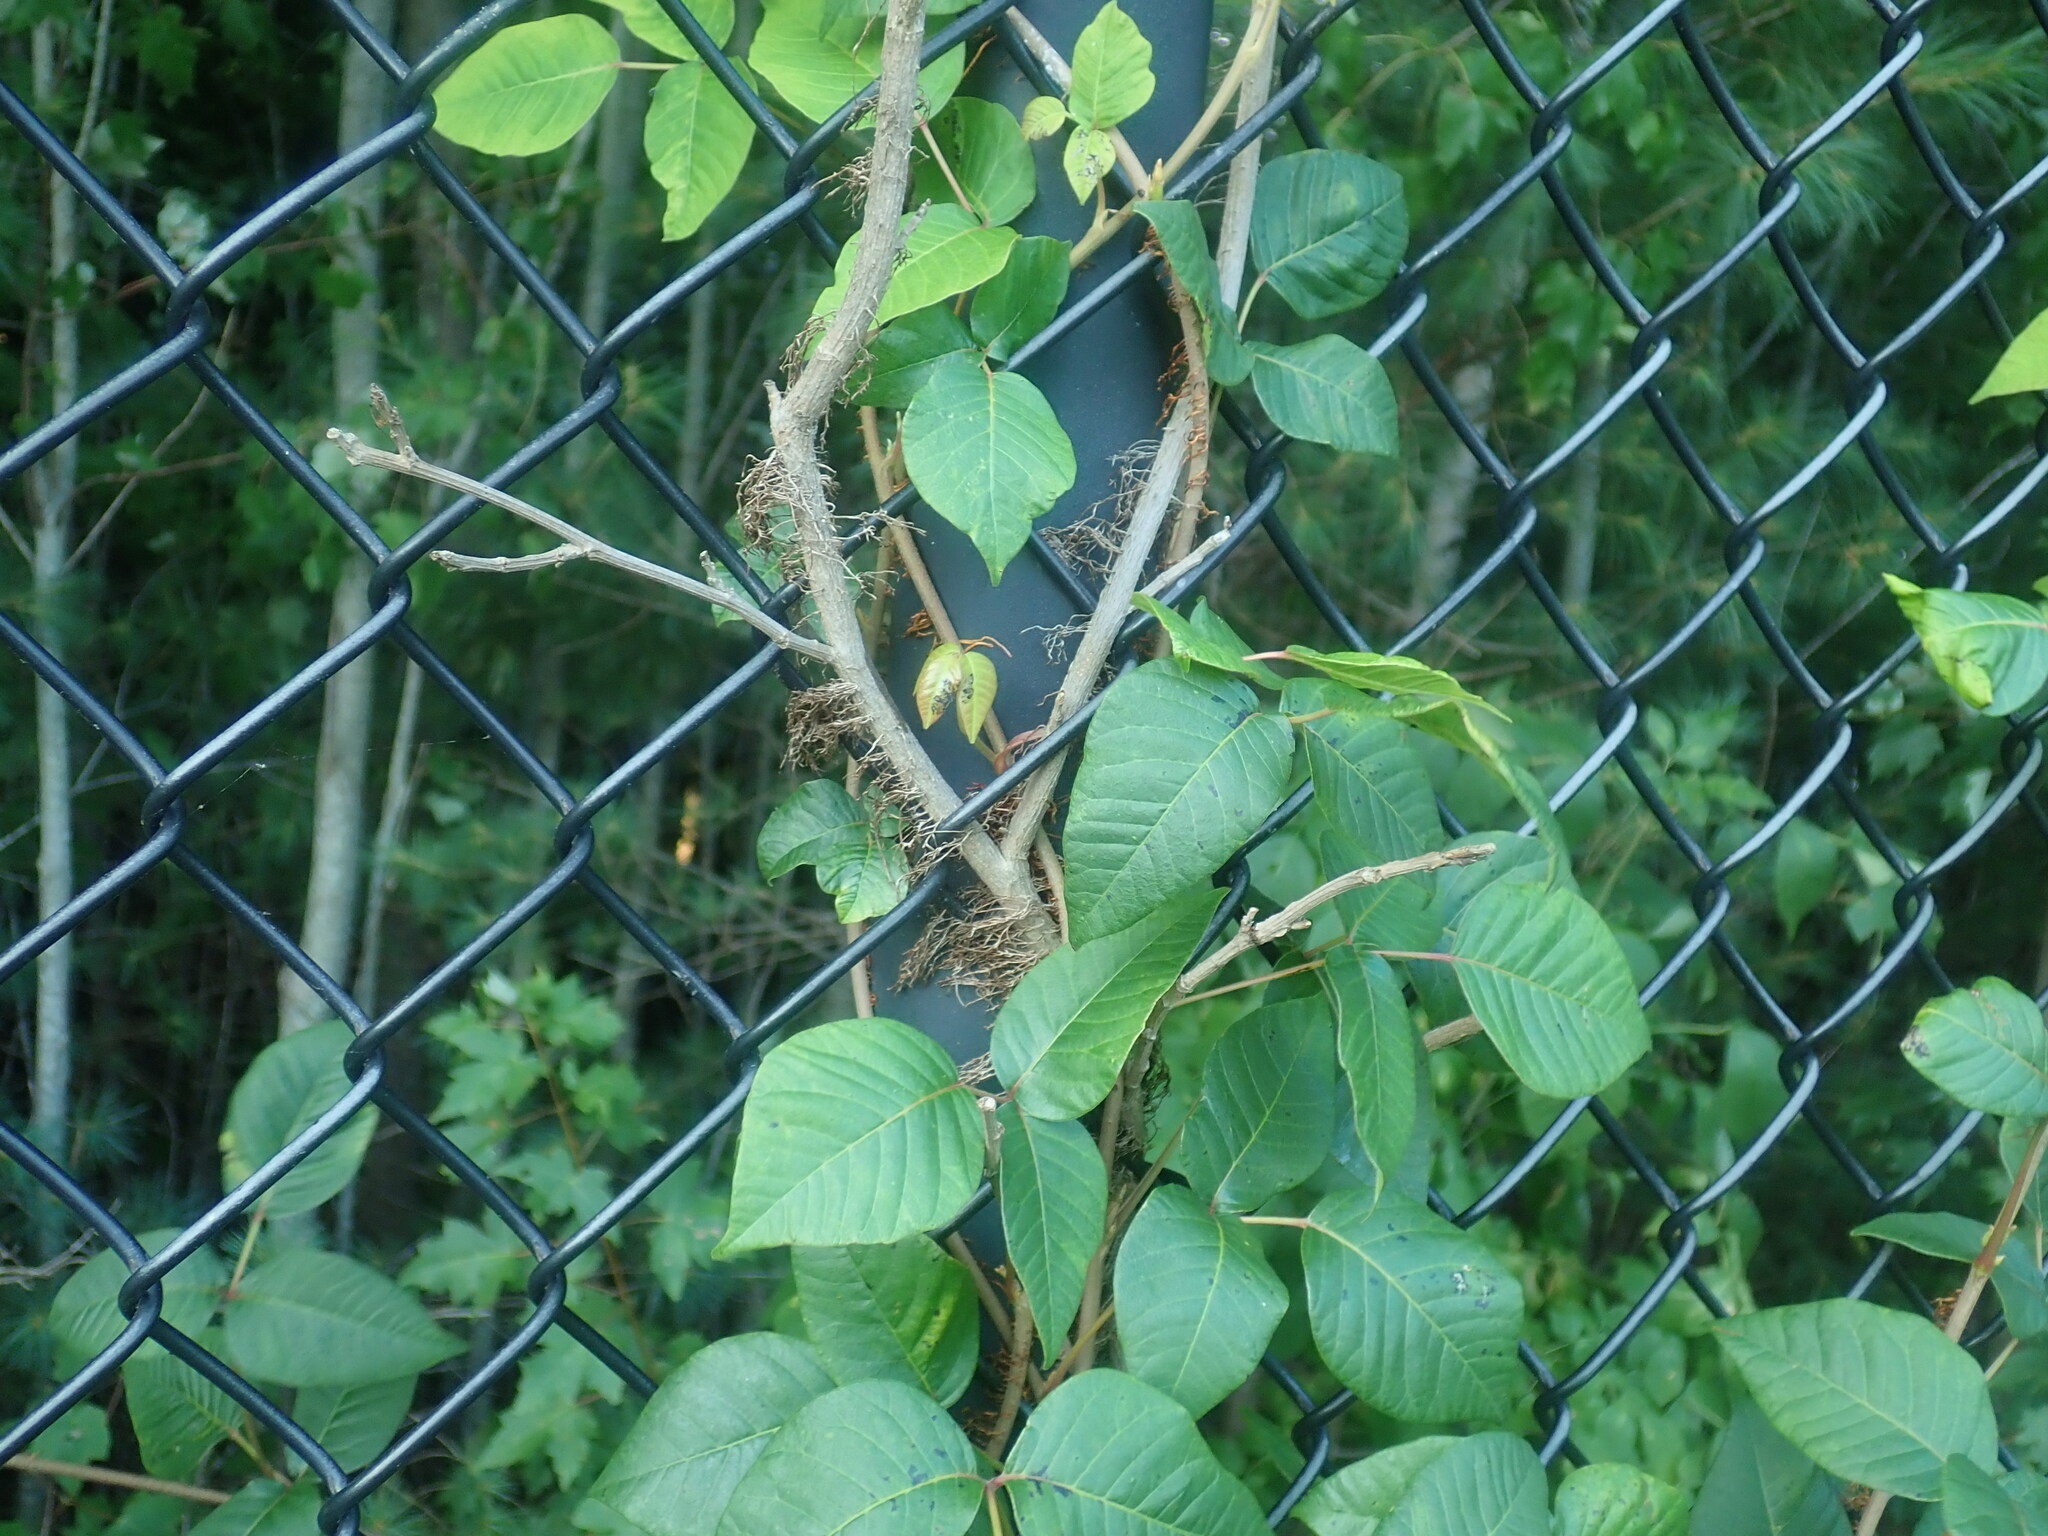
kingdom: Plantae
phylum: Tracheophyta
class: Magnoliopsida
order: Sapindales
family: Anacardiaceae
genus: Toxicodendron
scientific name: Toxicodendron radicans
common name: Poison ivy
